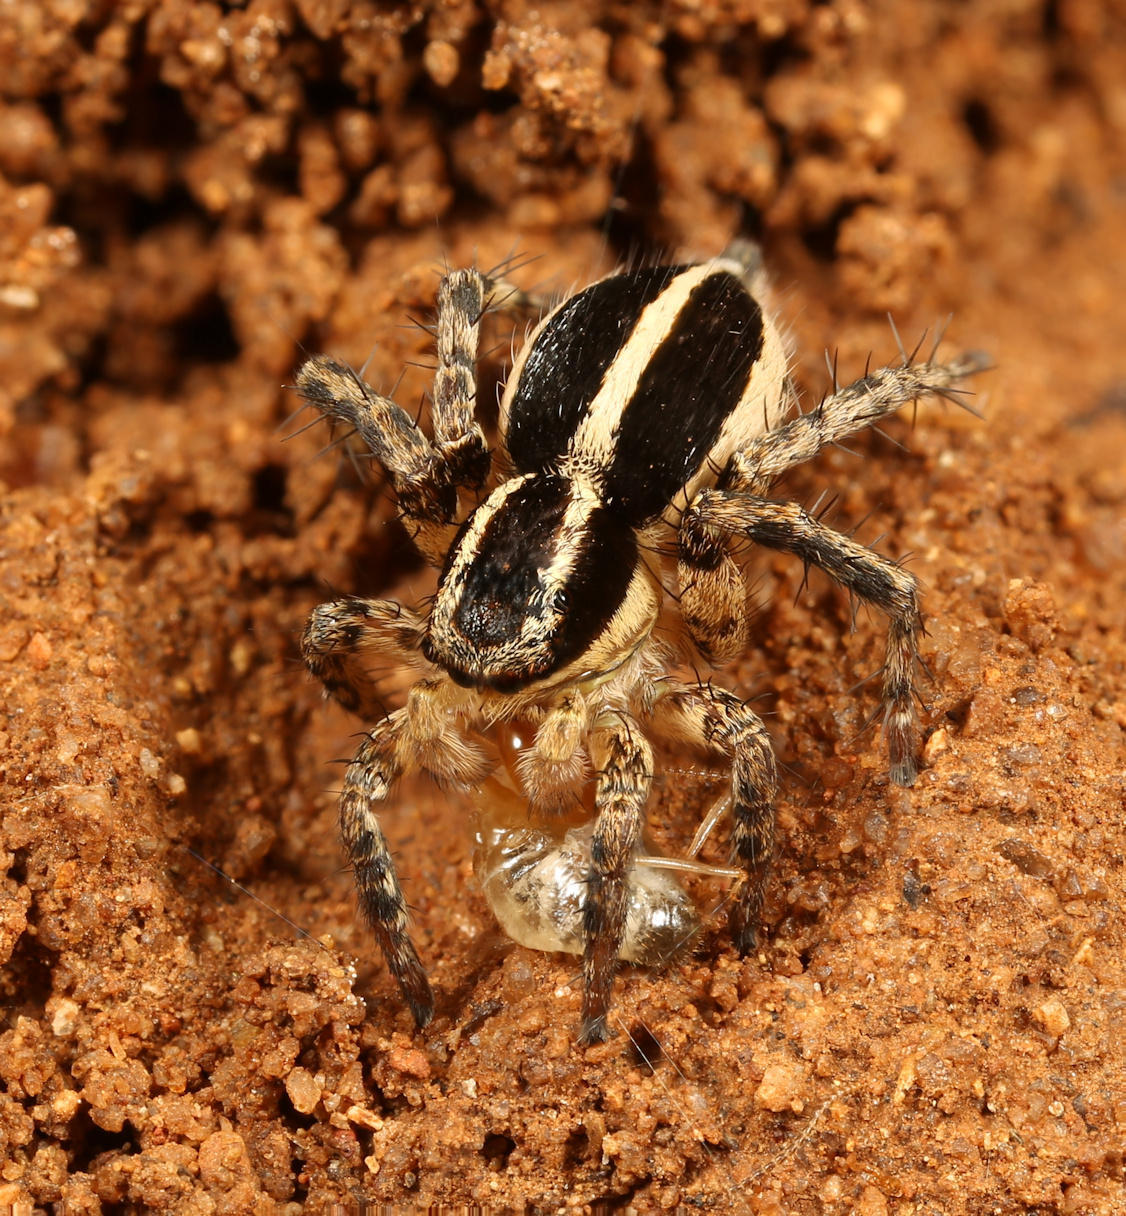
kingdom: Animalia
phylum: Arthropoda
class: Arachnida
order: Araneae
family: Salticidae
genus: Stenaelurillus
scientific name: Stenaelurillus termitophagus
